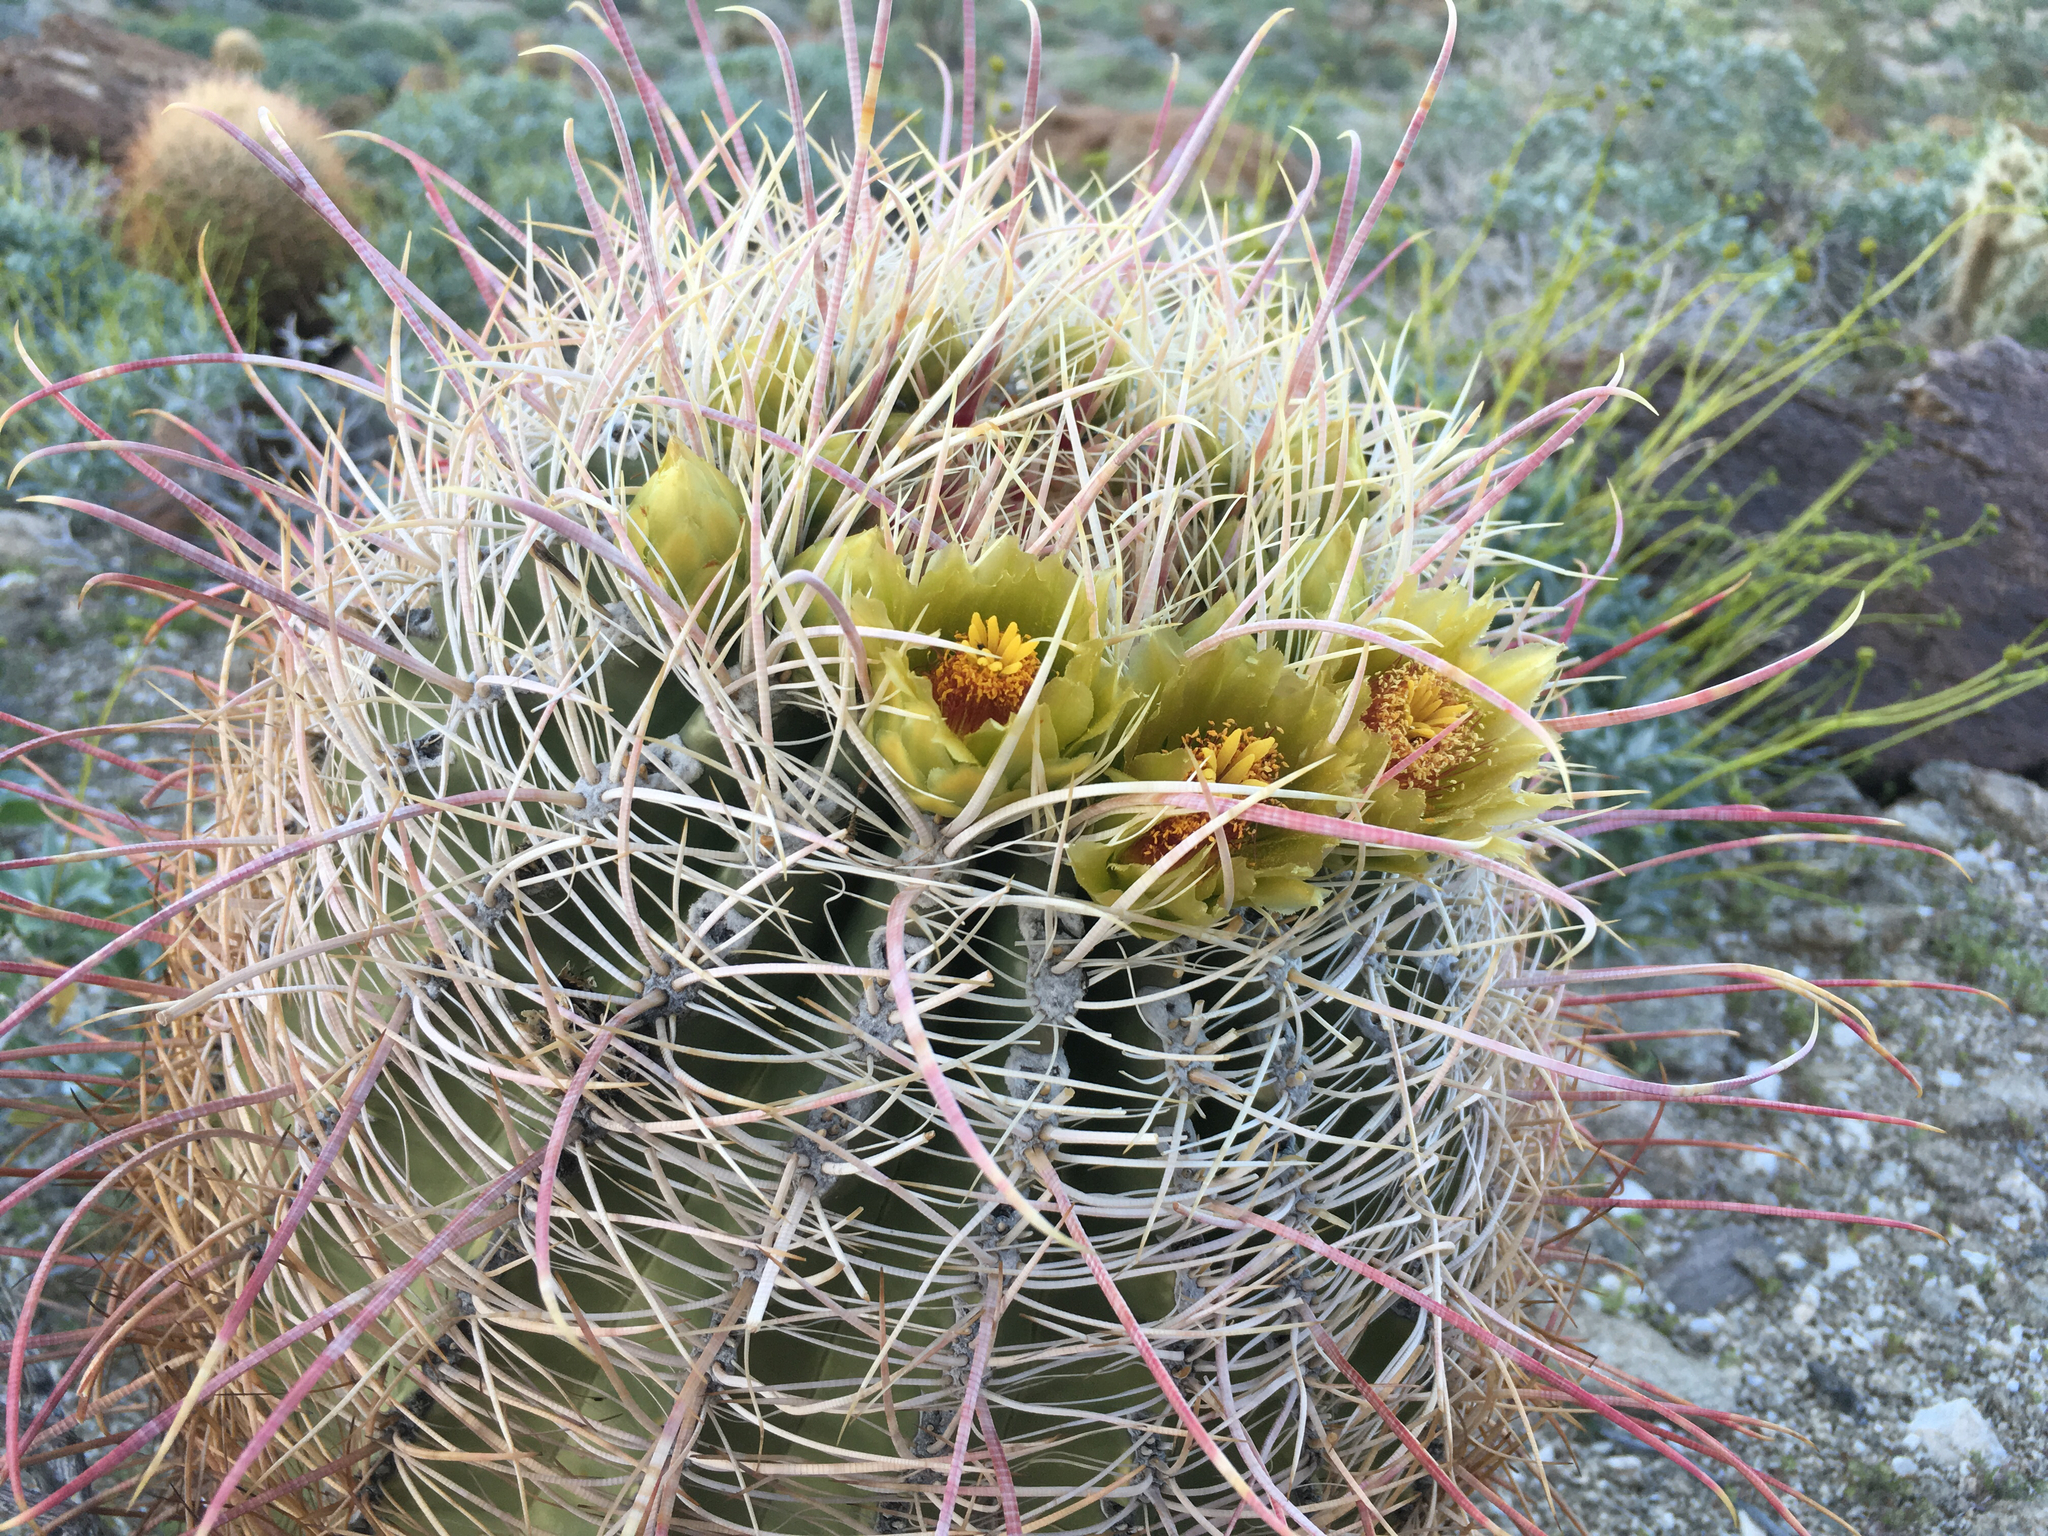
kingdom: Plantae
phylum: Tracheophyta
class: Magnoliopsida
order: Caryophyllales
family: Cactaceae
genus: Ferocactus
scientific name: Ferocactus cylindraceus
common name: California barrel cactus
